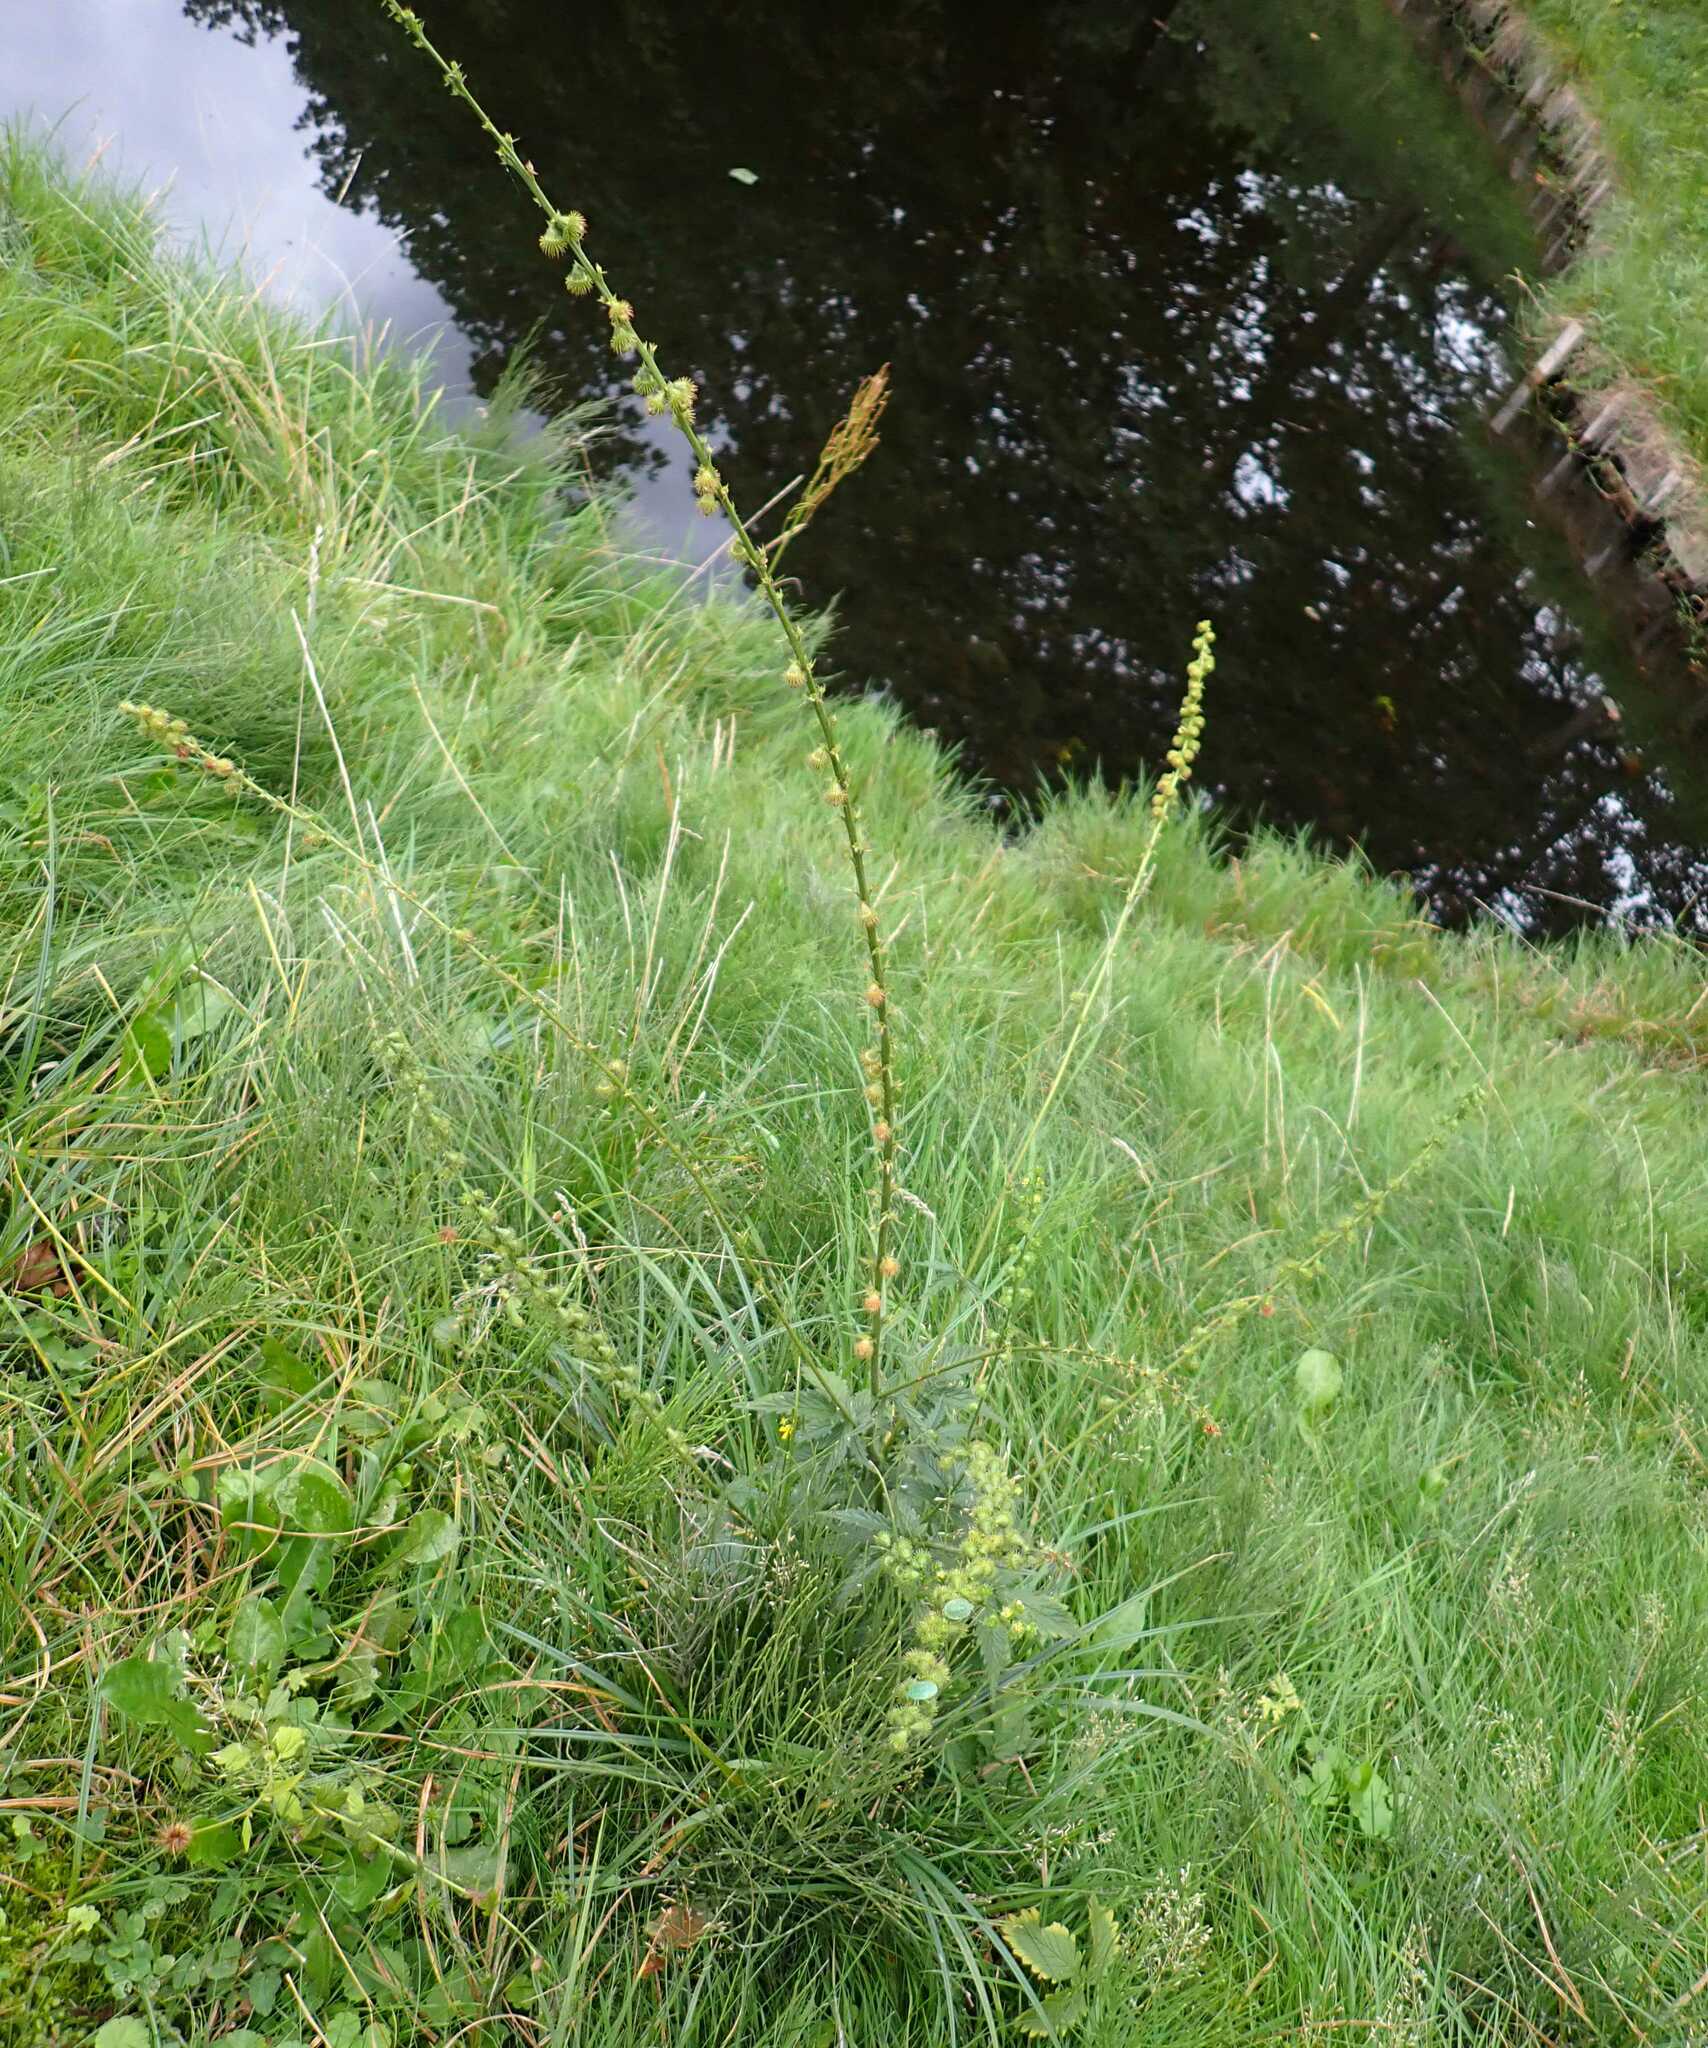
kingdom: Plantae
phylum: Tracheophyta
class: Magnoliopsida
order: Rosales
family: Rosaceae
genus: Agrimonia
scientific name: Agrimonia procera
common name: Fragrant agrimony
